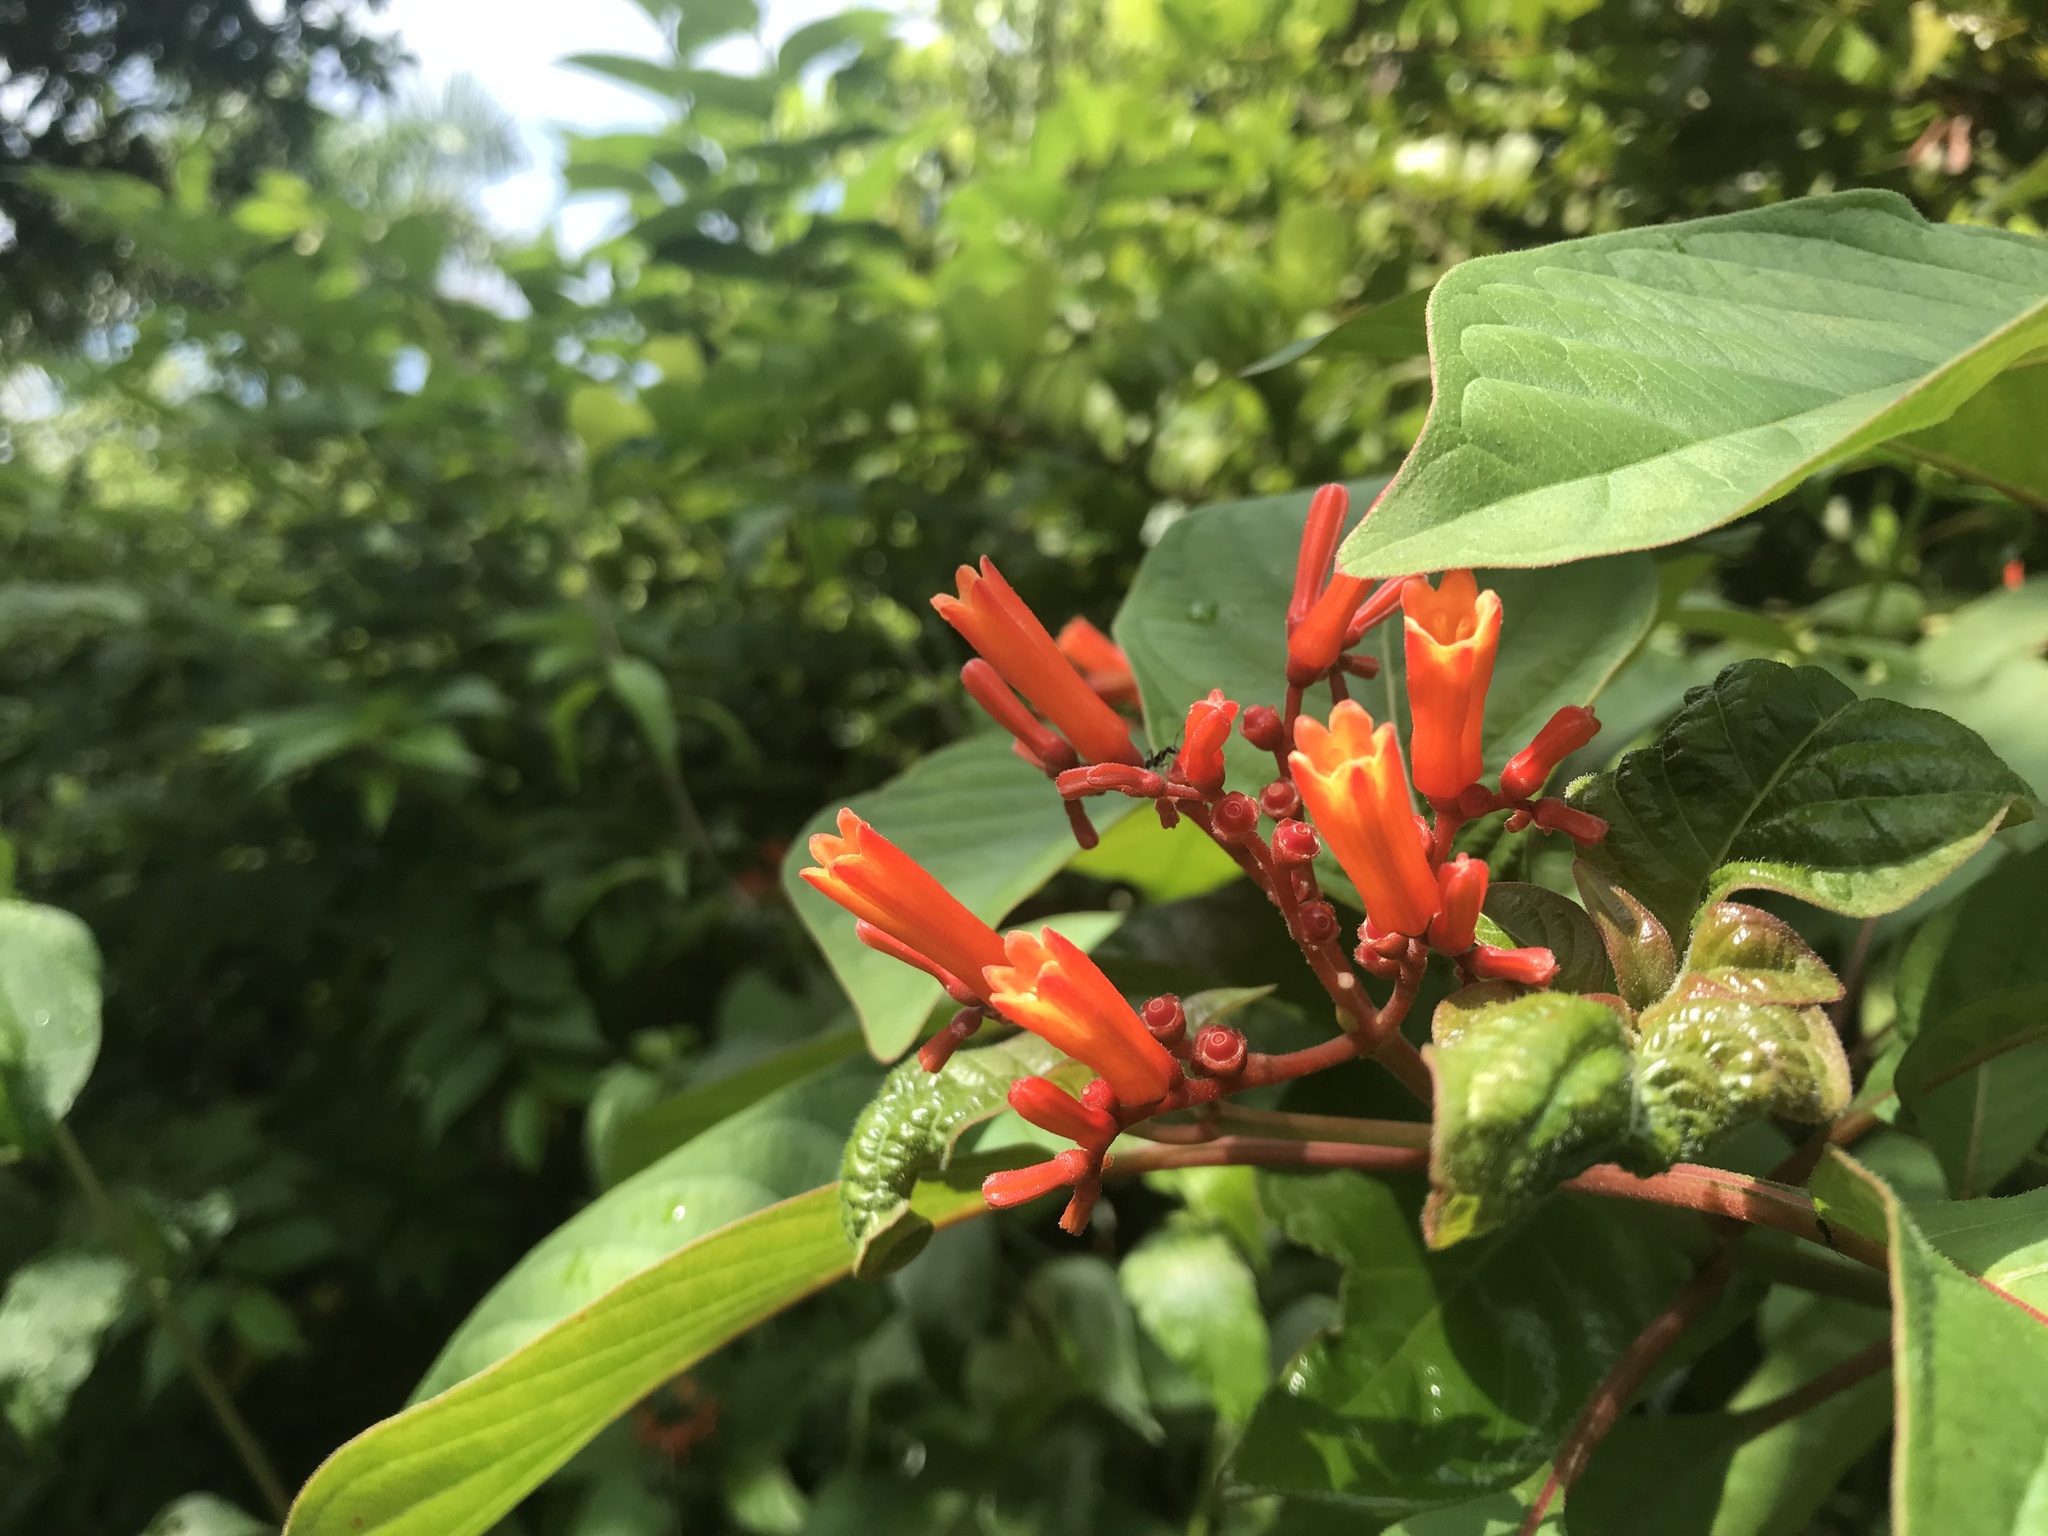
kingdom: Plantae
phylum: Tracheophyta
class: Magnoliopsida
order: Gentianales
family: Rubiaceae
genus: Hamelia
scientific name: Hamelia patens
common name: Redhead
